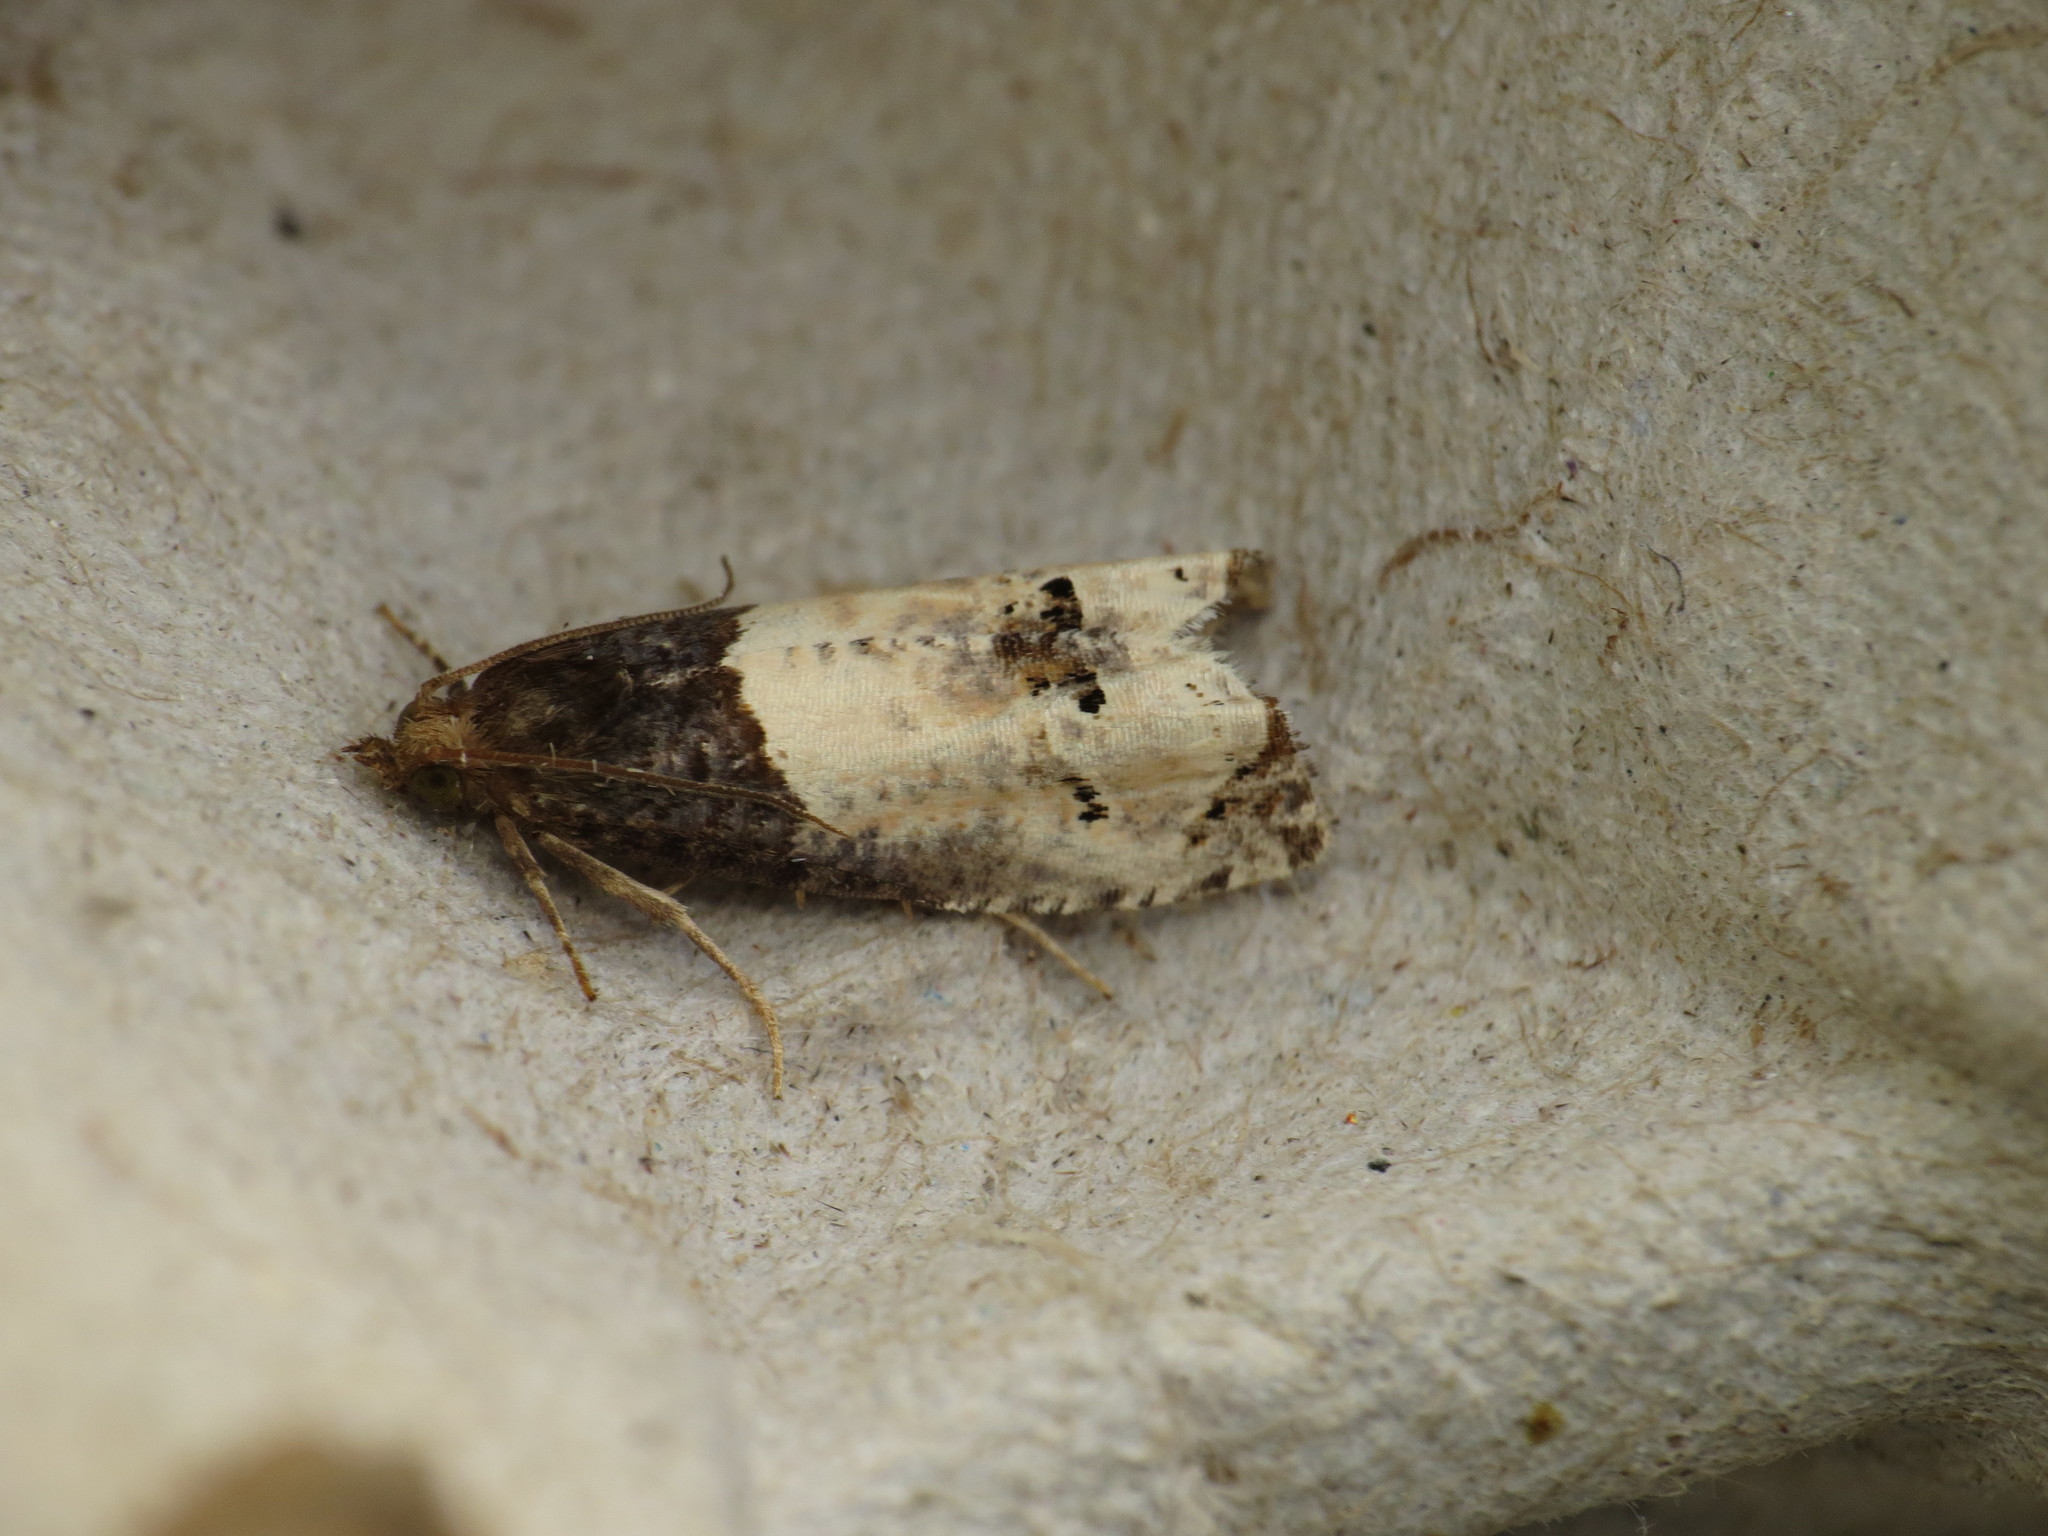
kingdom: Animalia
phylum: Arthropoda
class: Insecta
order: Lepidoptera
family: Tortricidae
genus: Epiblema
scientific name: Epiblema aquana
